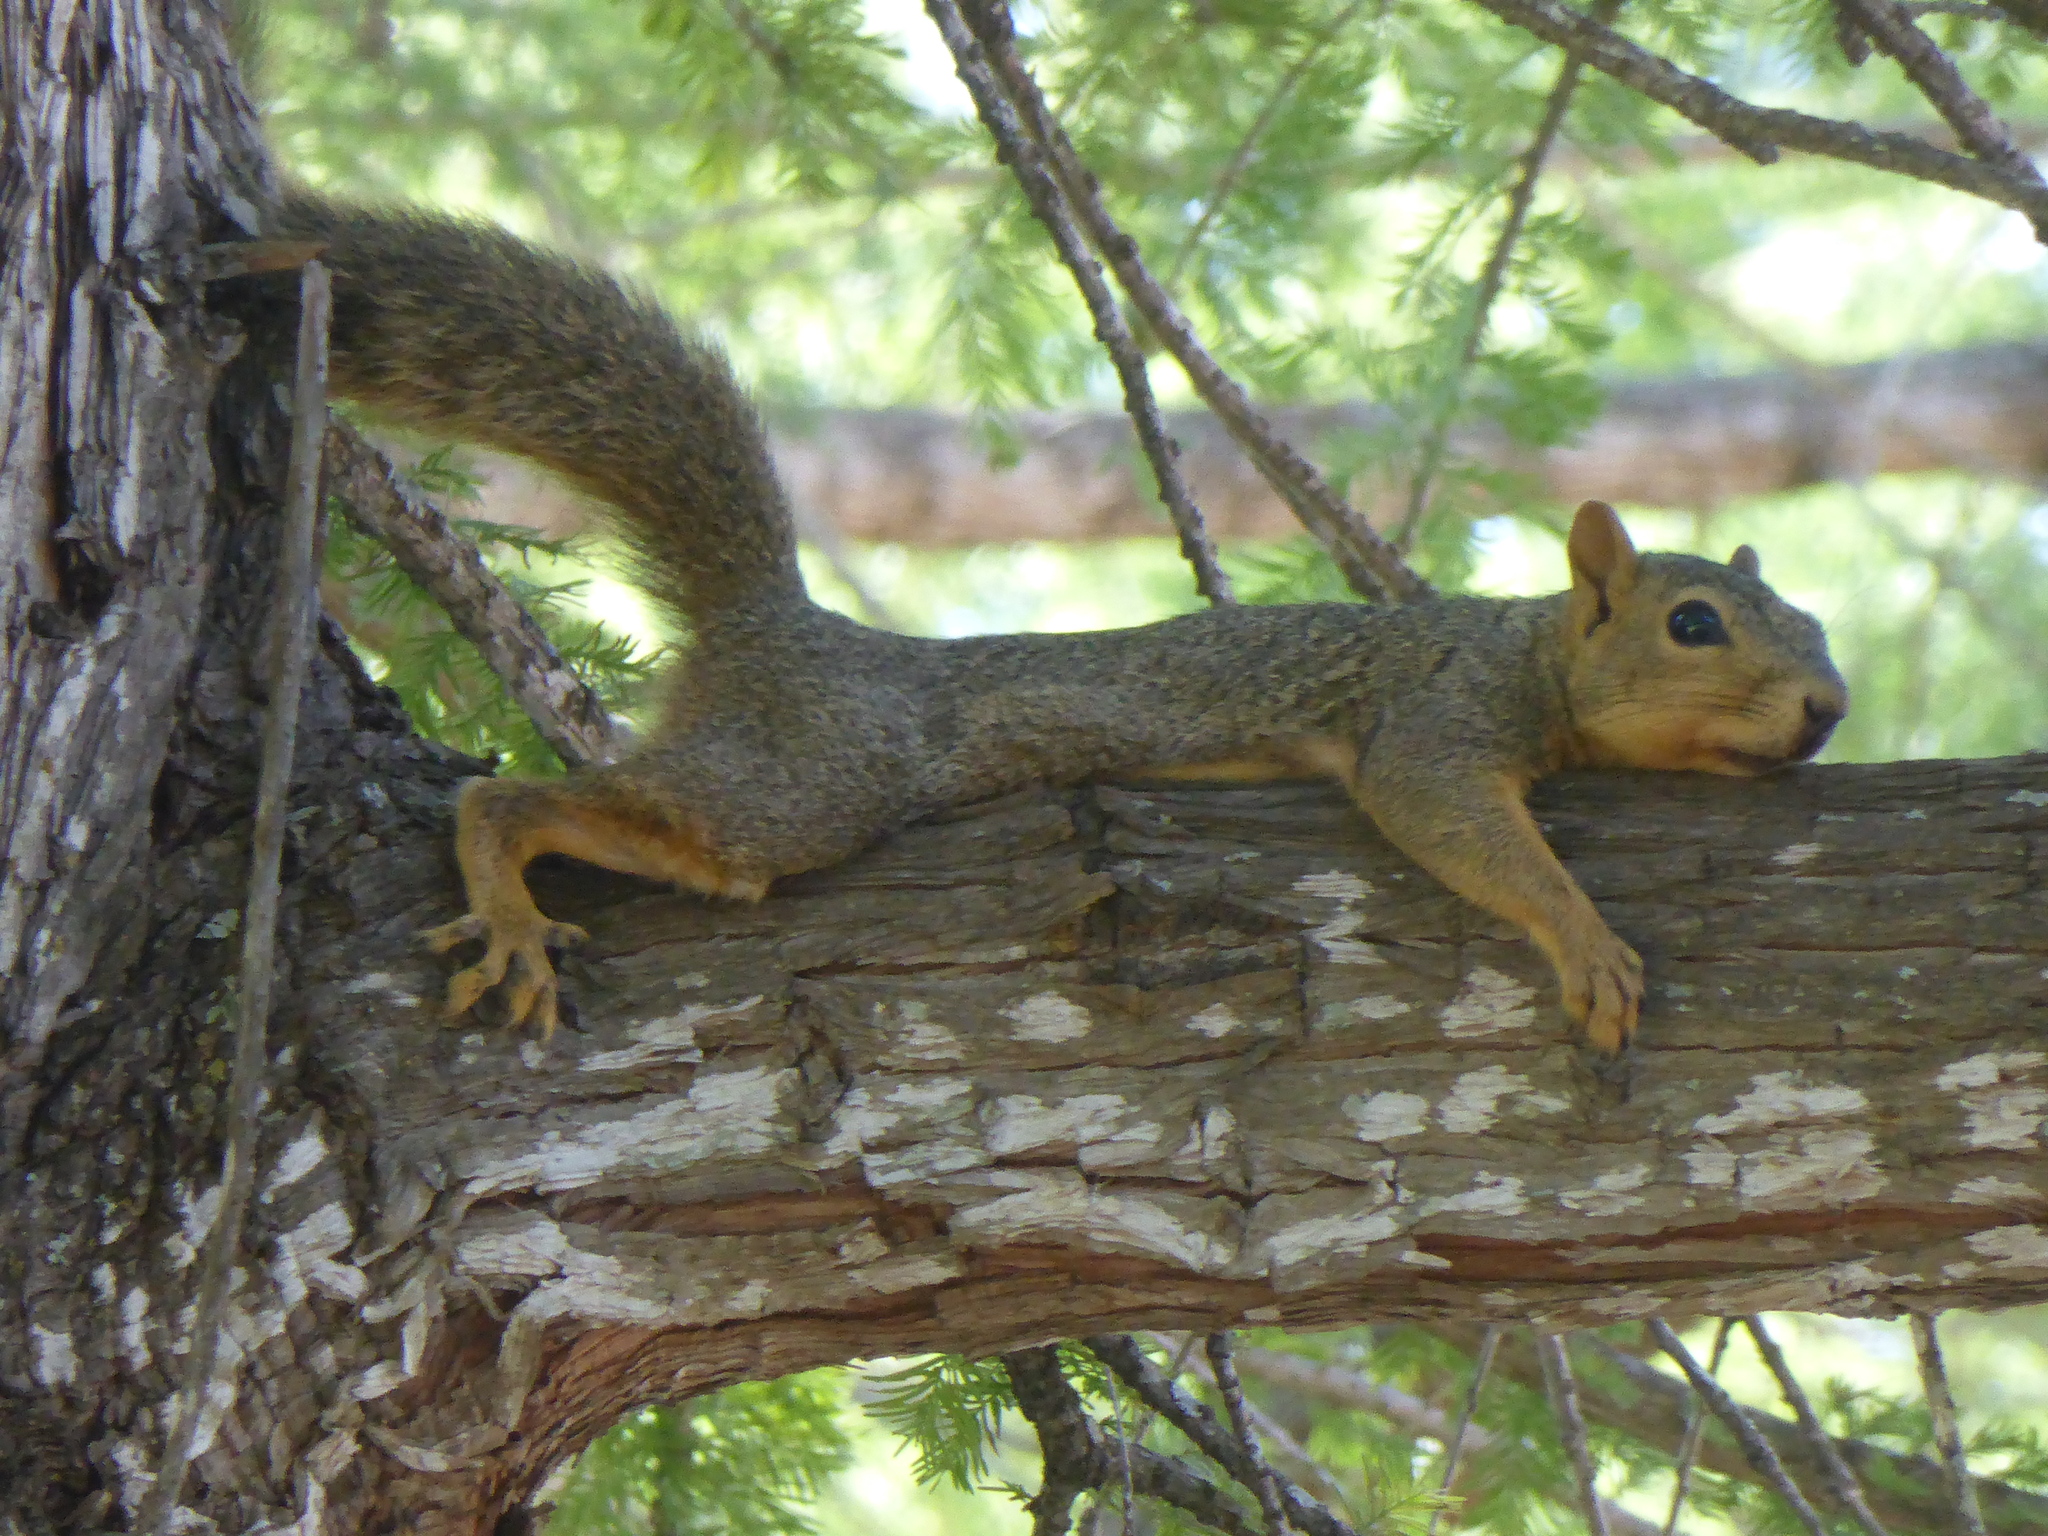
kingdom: Animalia
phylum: Chordata
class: Mammalia
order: Rodentia
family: Sciuridae
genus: Sciurus
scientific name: Sciurus niger
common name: Fox squirrel
